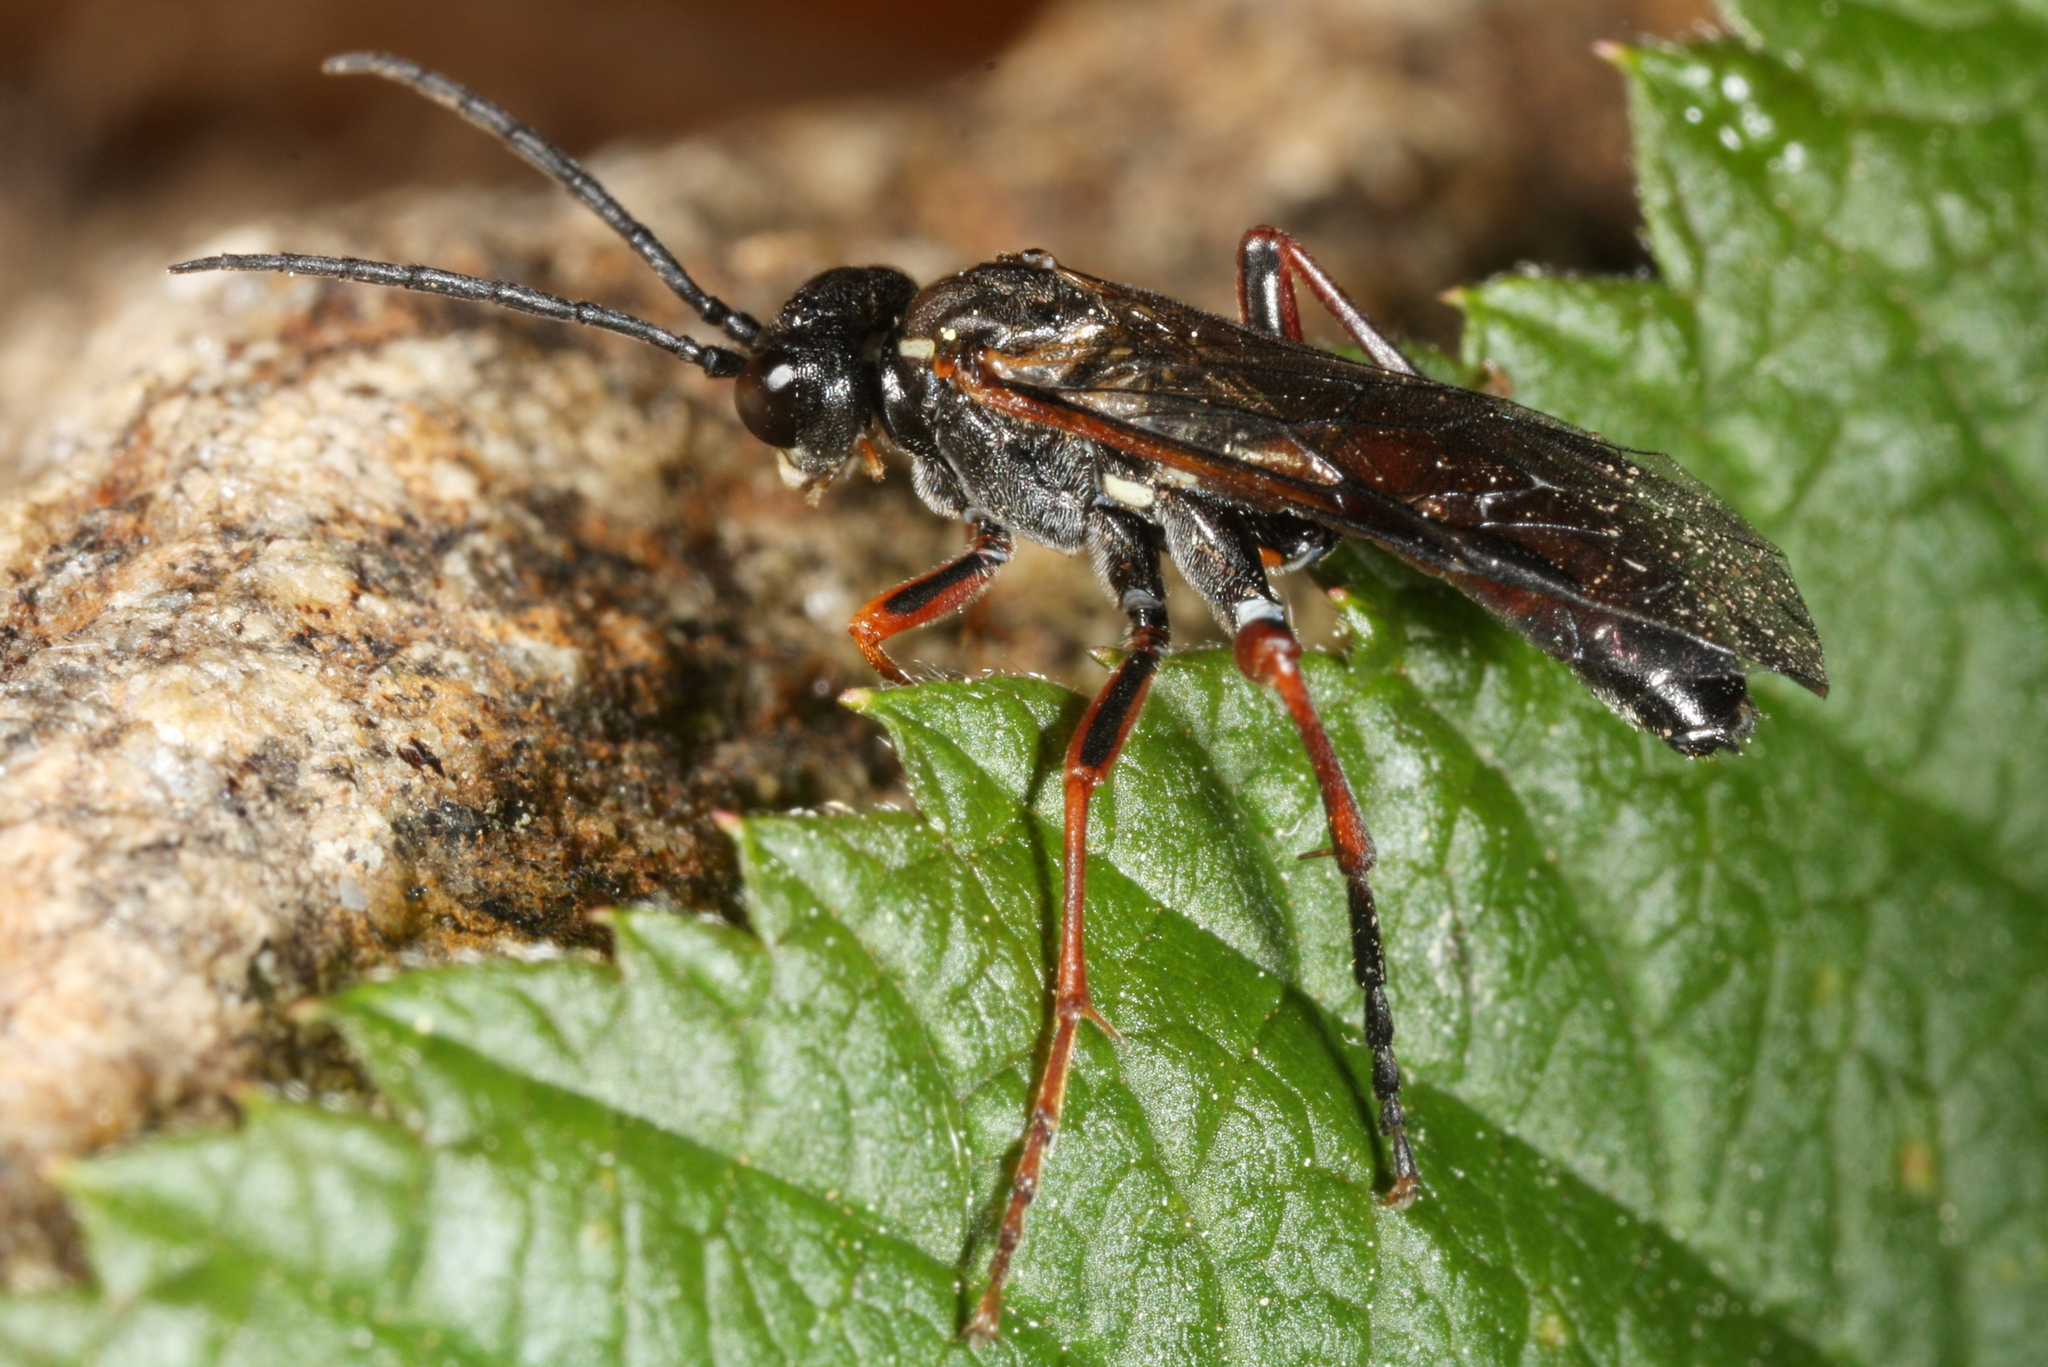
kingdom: Animalia
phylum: Arthropoda
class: Insecta
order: Hymenoptera
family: Tenthredinidae
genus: Tenthredo
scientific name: Tenthredo atra
